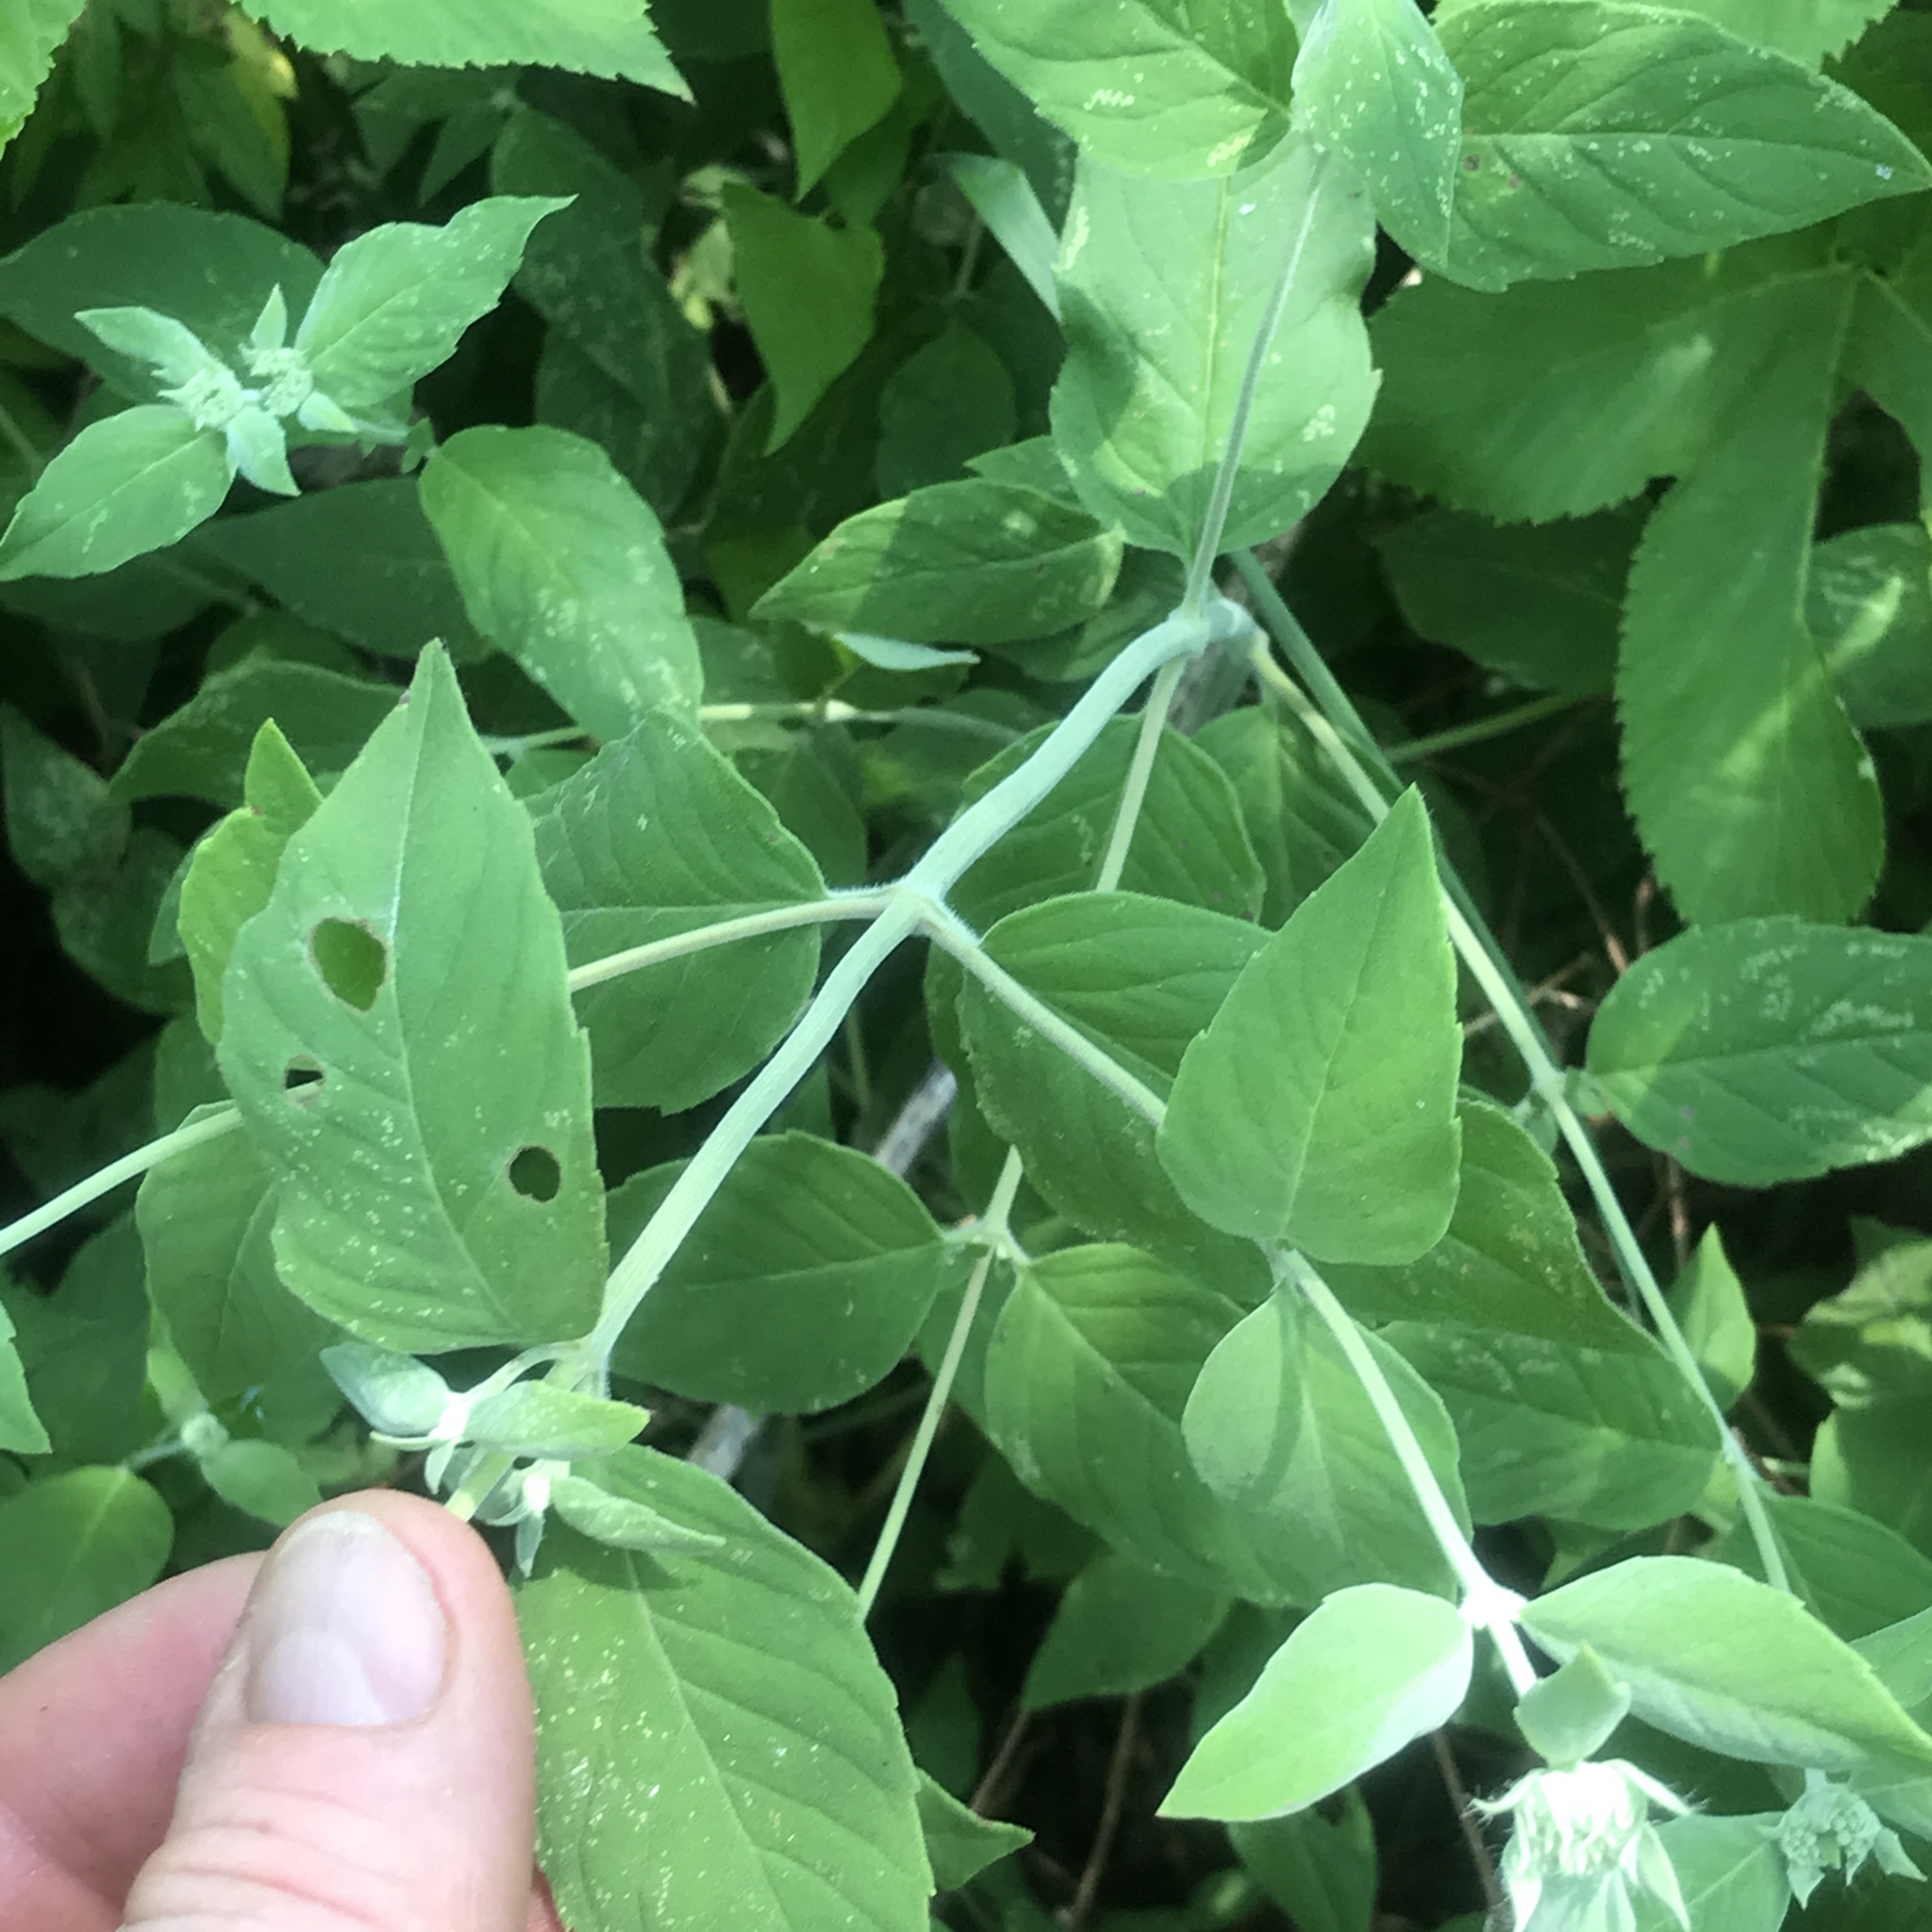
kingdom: Plantae
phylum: Tracheophyta
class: Magnoliopsida
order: Lamiales
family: Lamiaceae
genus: Pycnanthemum
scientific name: Pycnanthemum incanum
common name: Hoary mountain-mint
